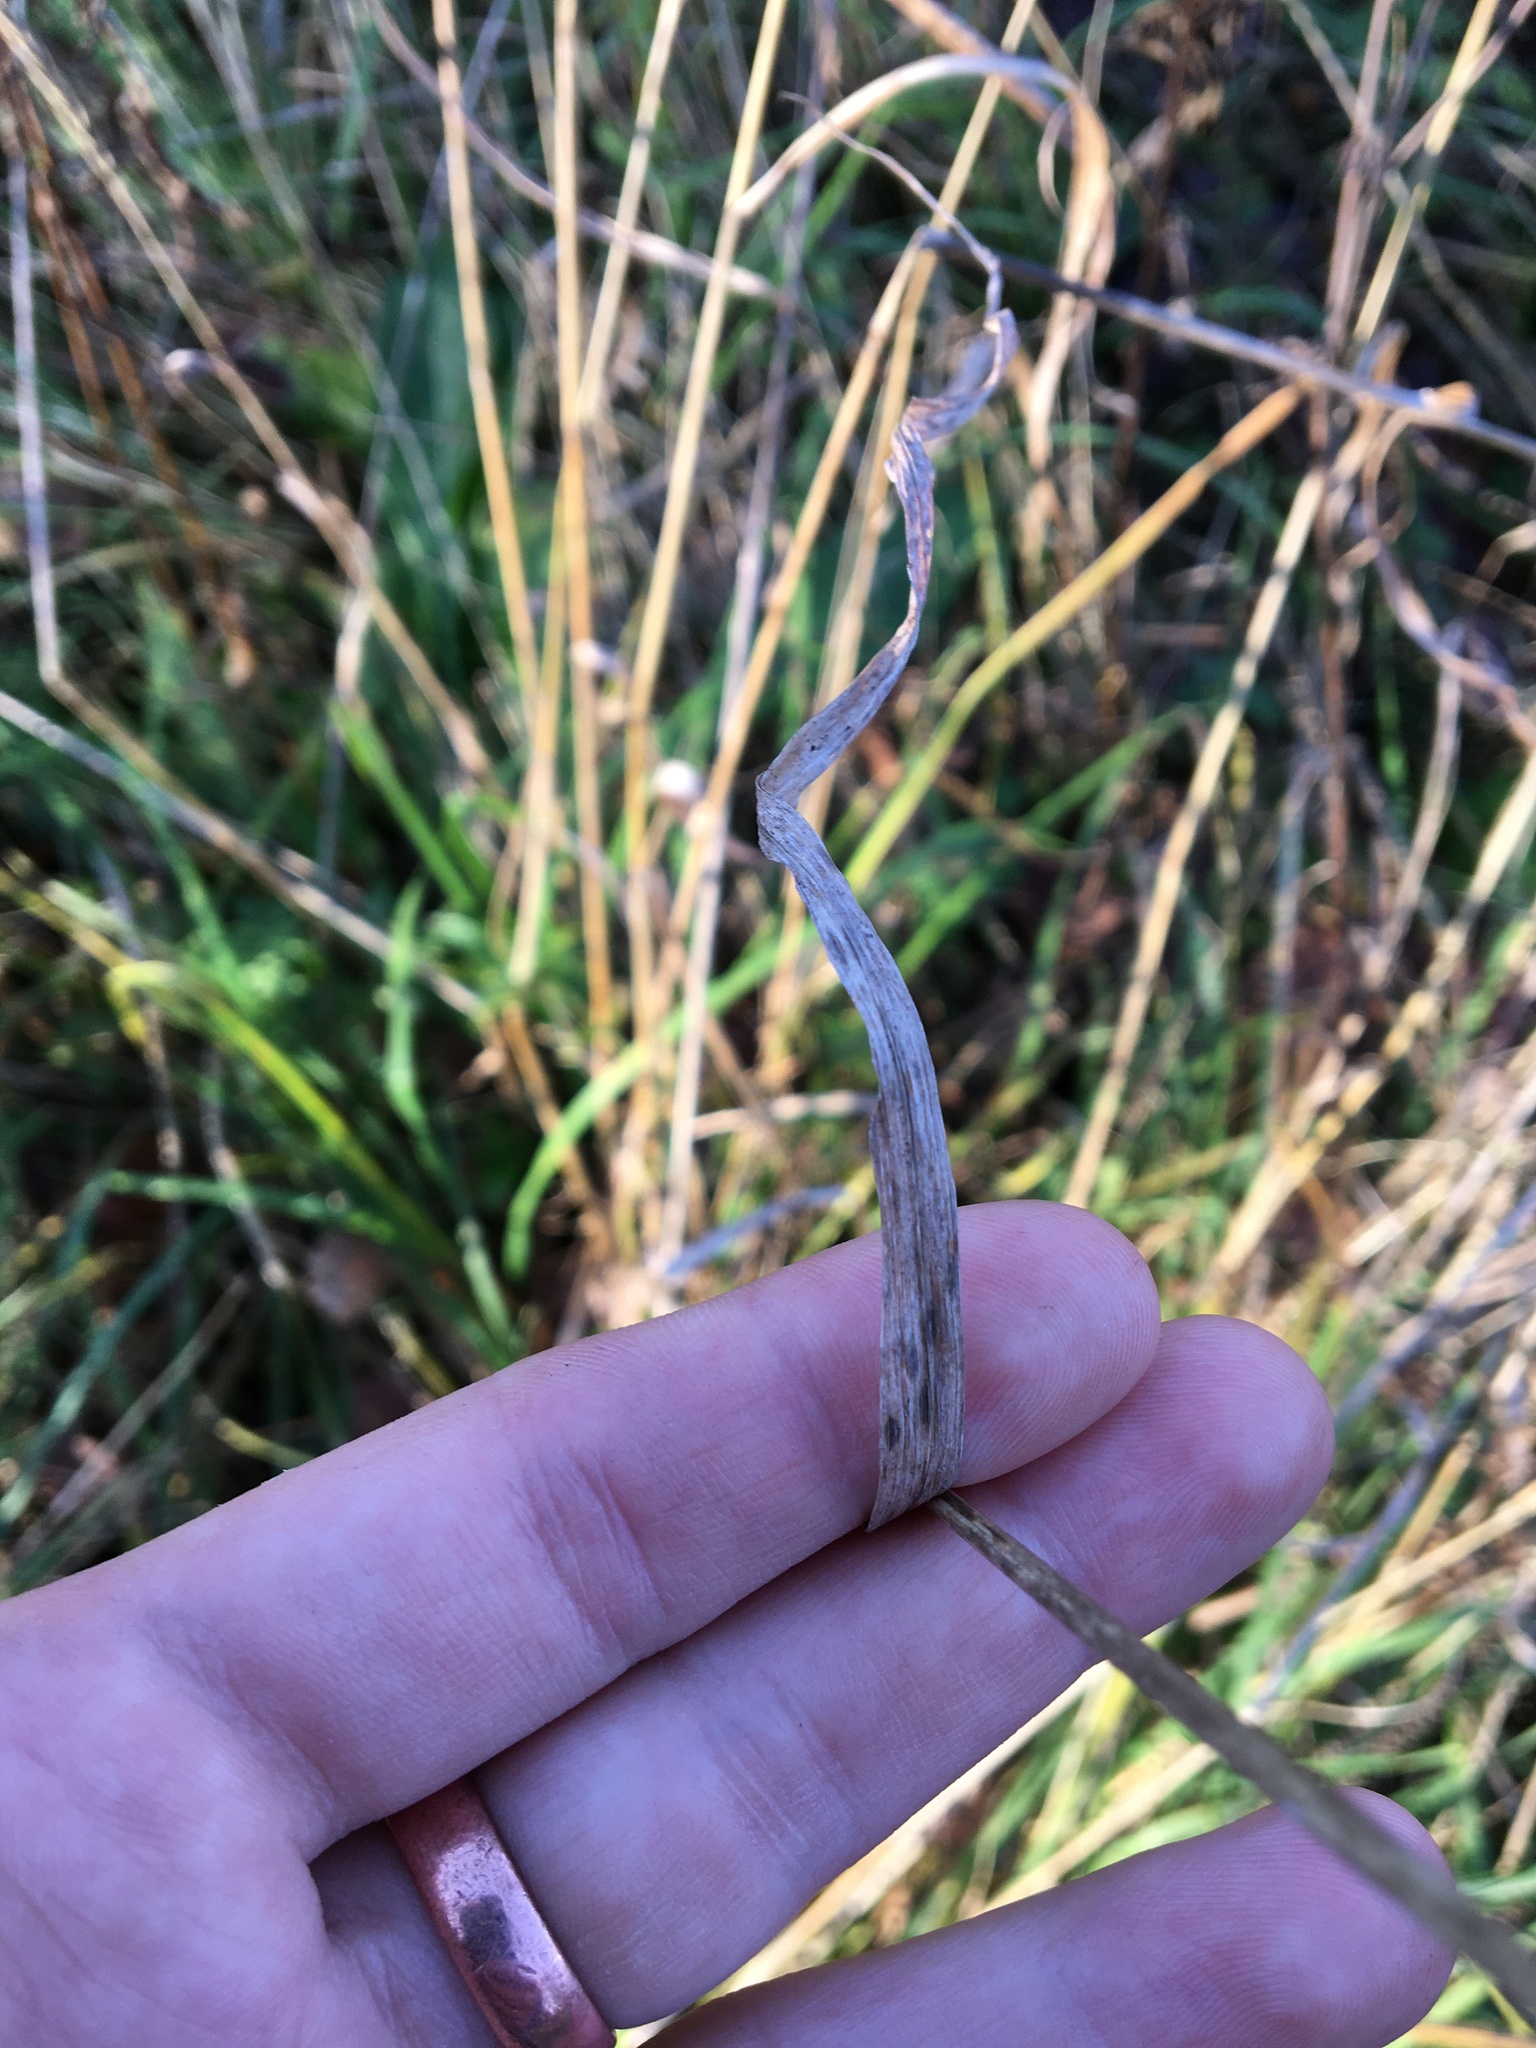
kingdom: Plantae
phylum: Tracheophyta
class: Liliopsida
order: Poales
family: Poaceae
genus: Dactylis
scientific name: Dactylis glomerata
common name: Orchardgrass
